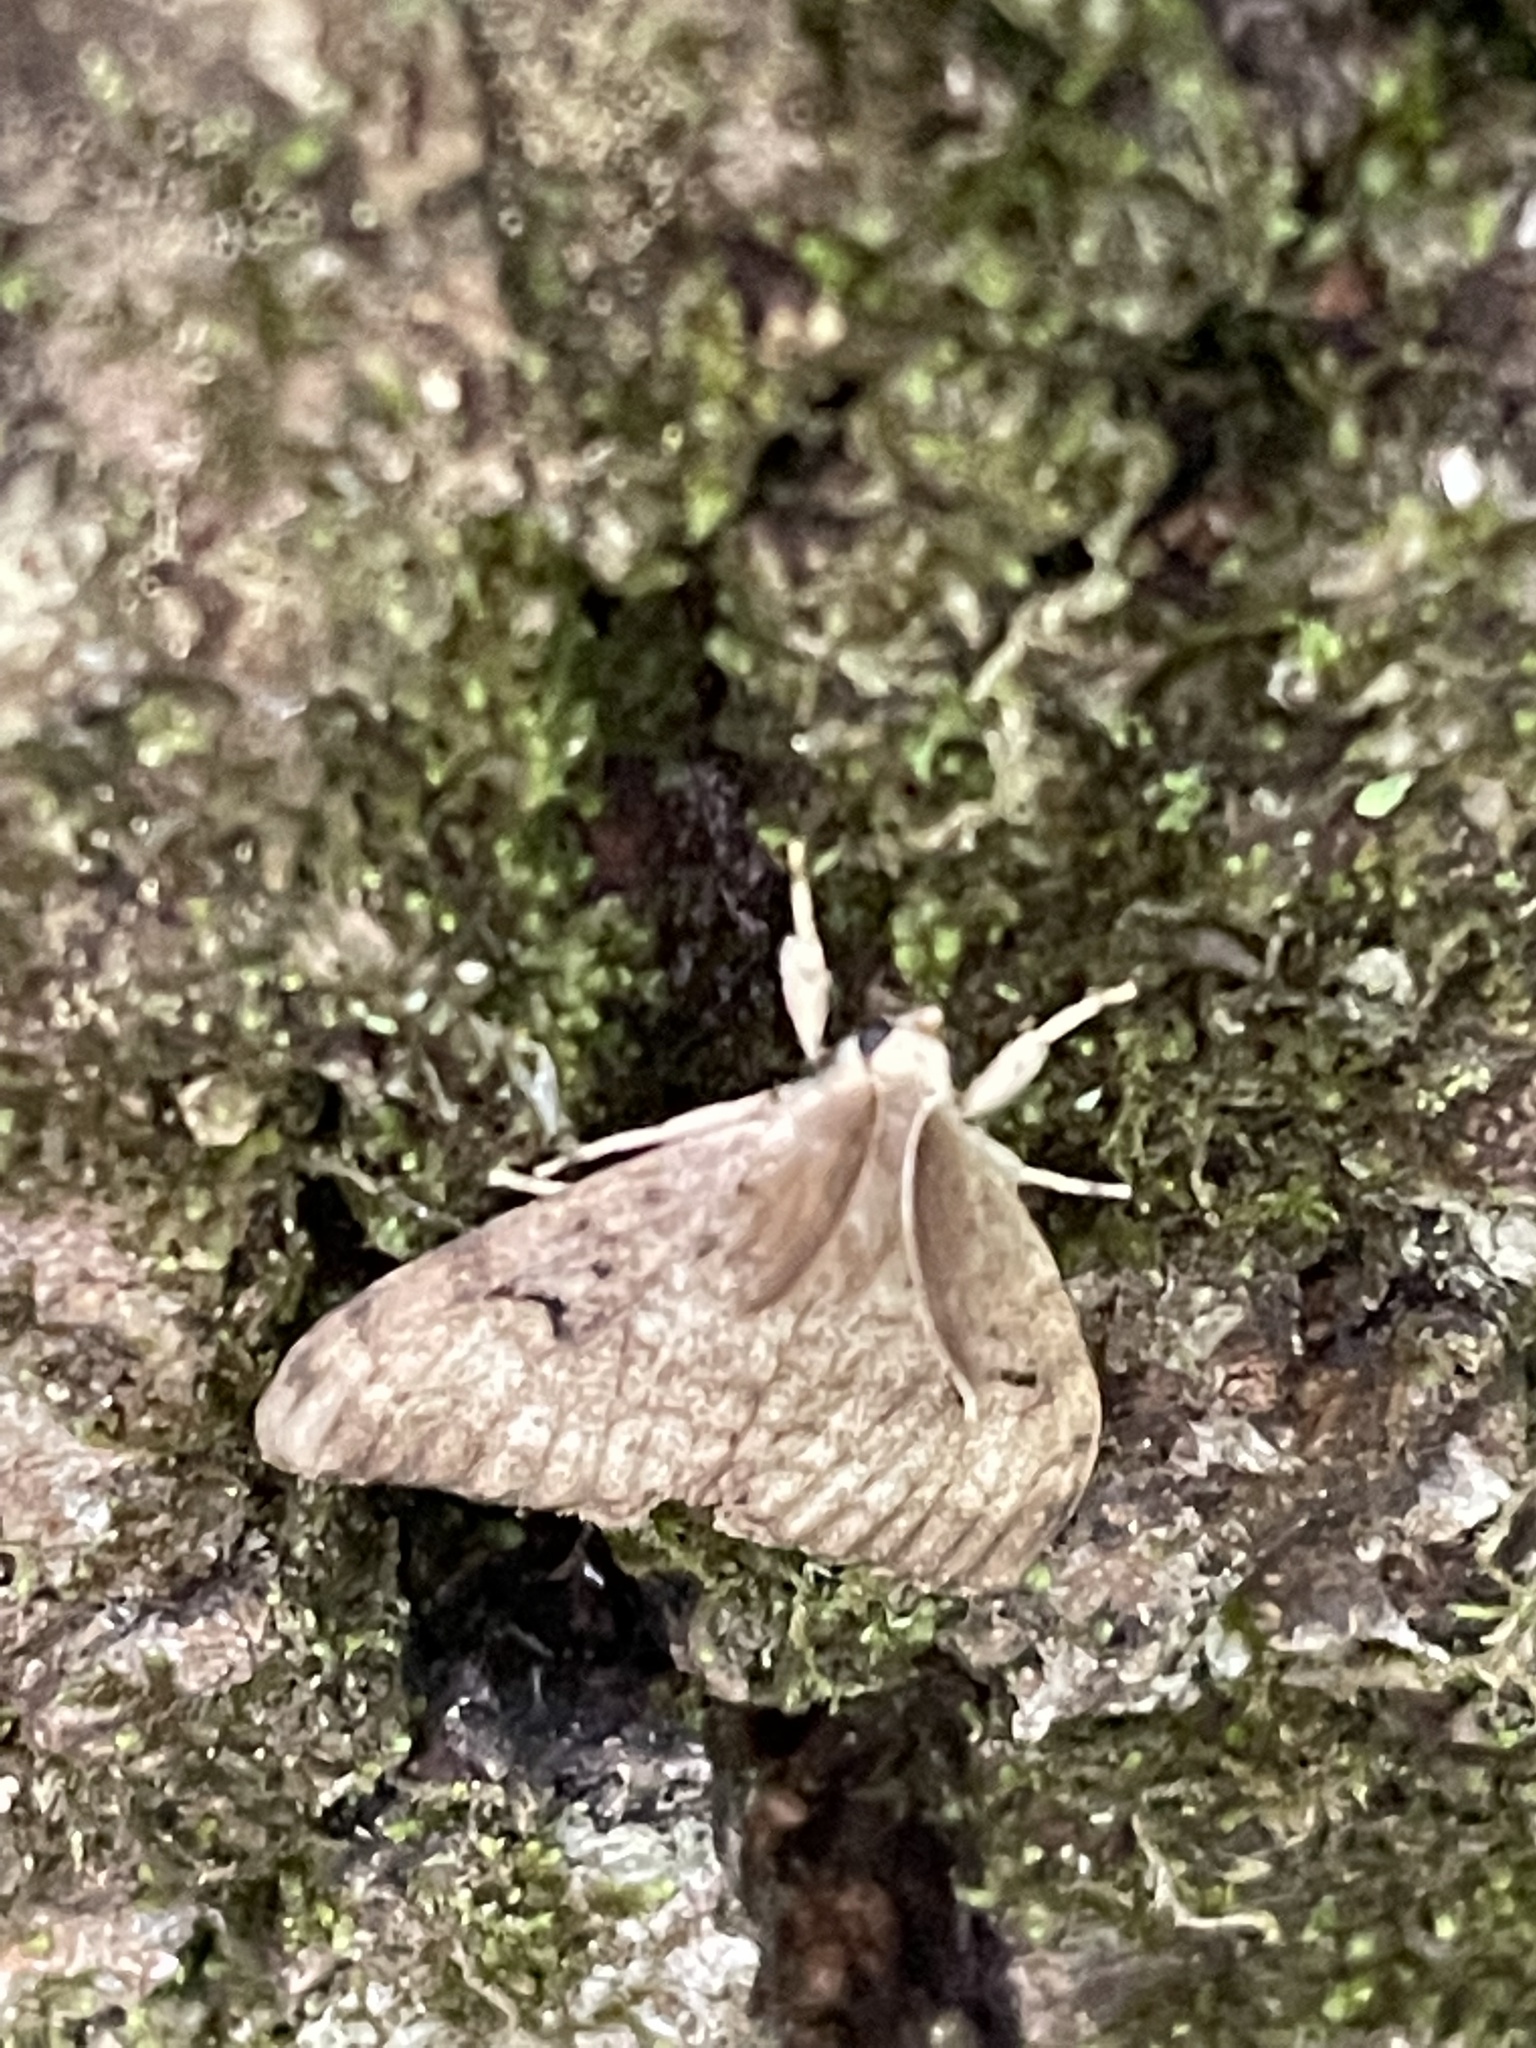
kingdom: Animalia
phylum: Arthropoda
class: Insecta
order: Lepidoptera
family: Erebidae
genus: Lymantria
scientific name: Lymantria dispar
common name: Gypsy moth
